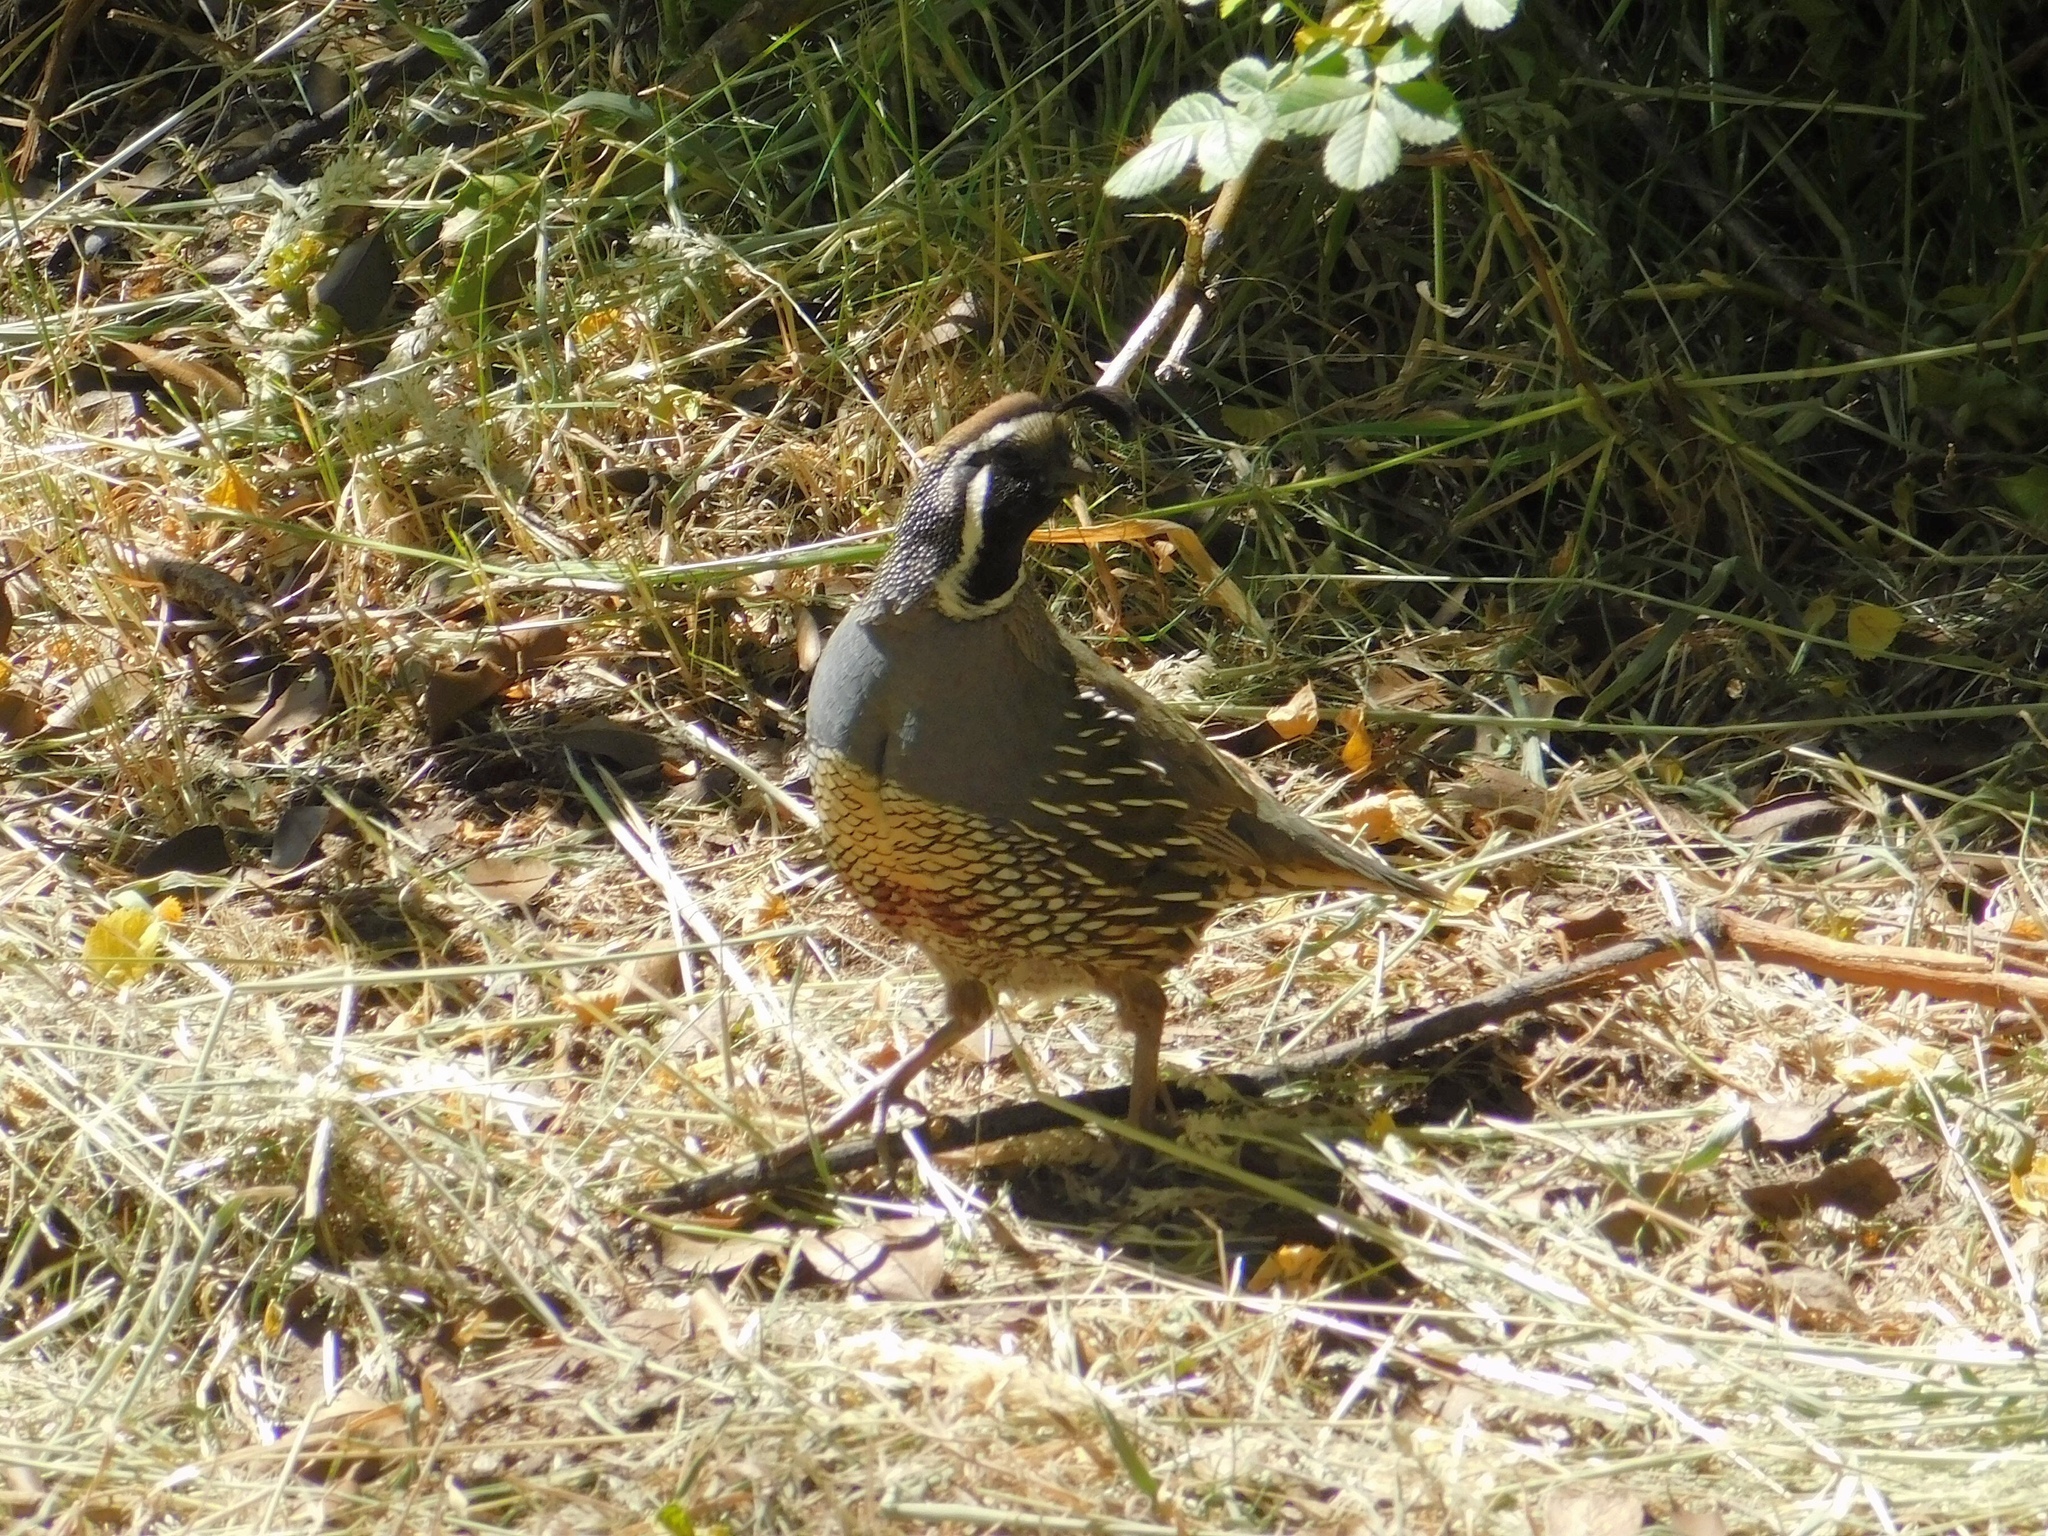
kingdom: Animalia
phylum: Chordata
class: Aves
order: Galliformes
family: Odontophoridae
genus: Callipepla
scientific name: Callipepla californica
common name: California quail
